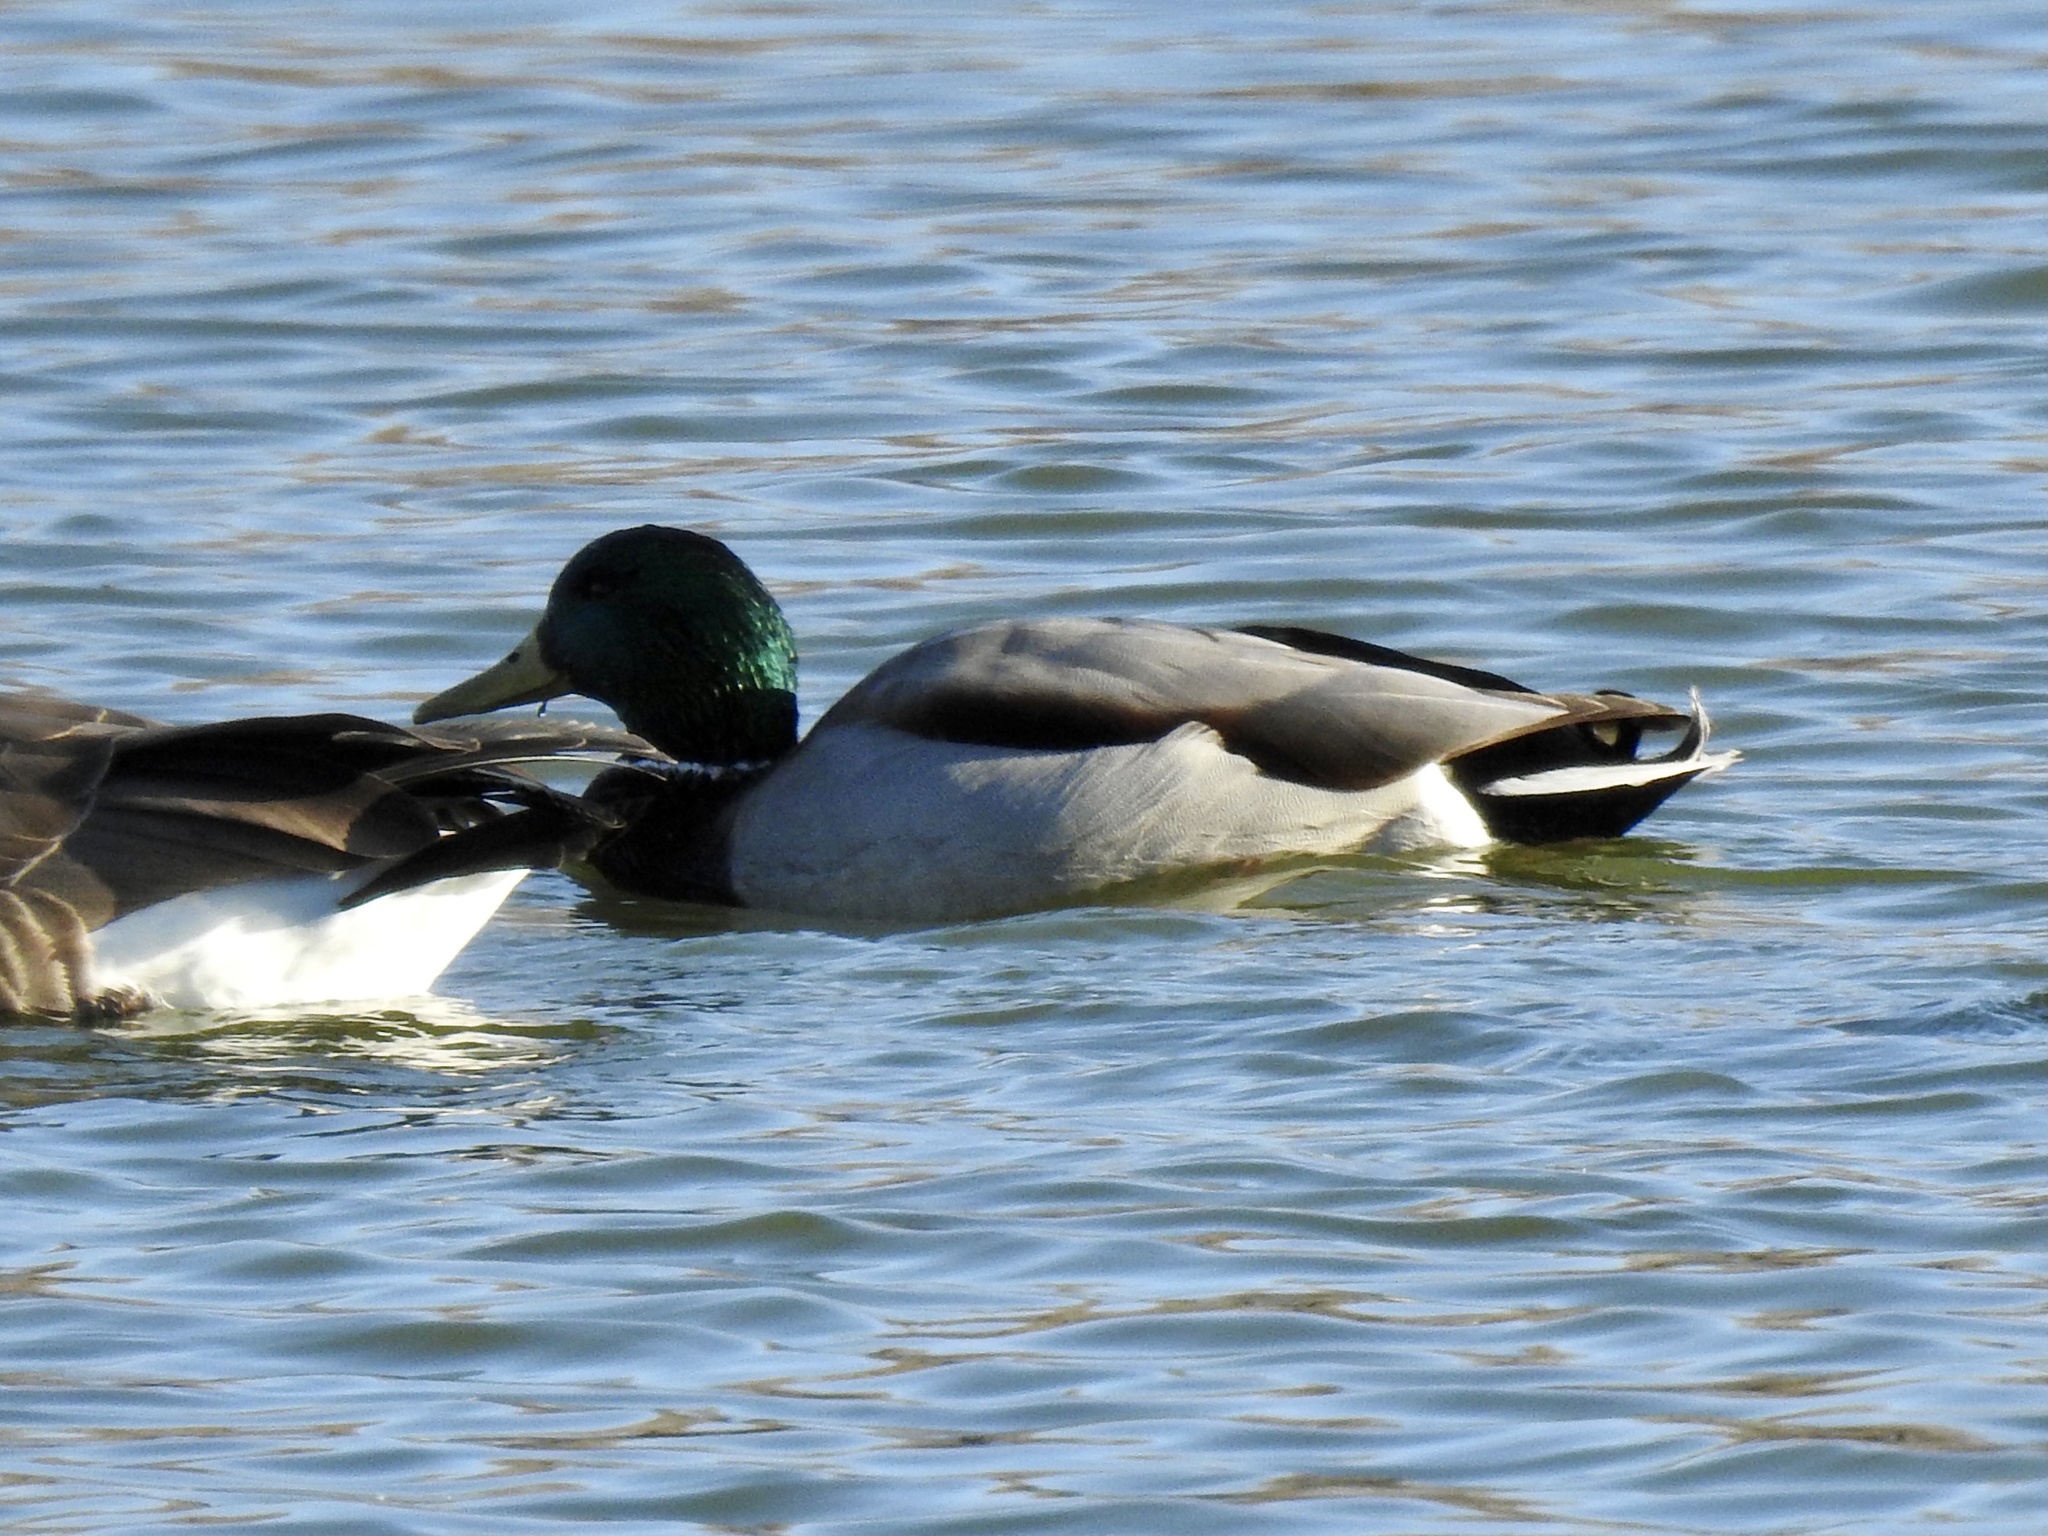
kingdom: Animalia
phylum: Chordata
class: Aves
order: Anseriformes
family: Anatidae
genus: Anas
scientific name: Anas platyrhynchos
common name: Mallard
